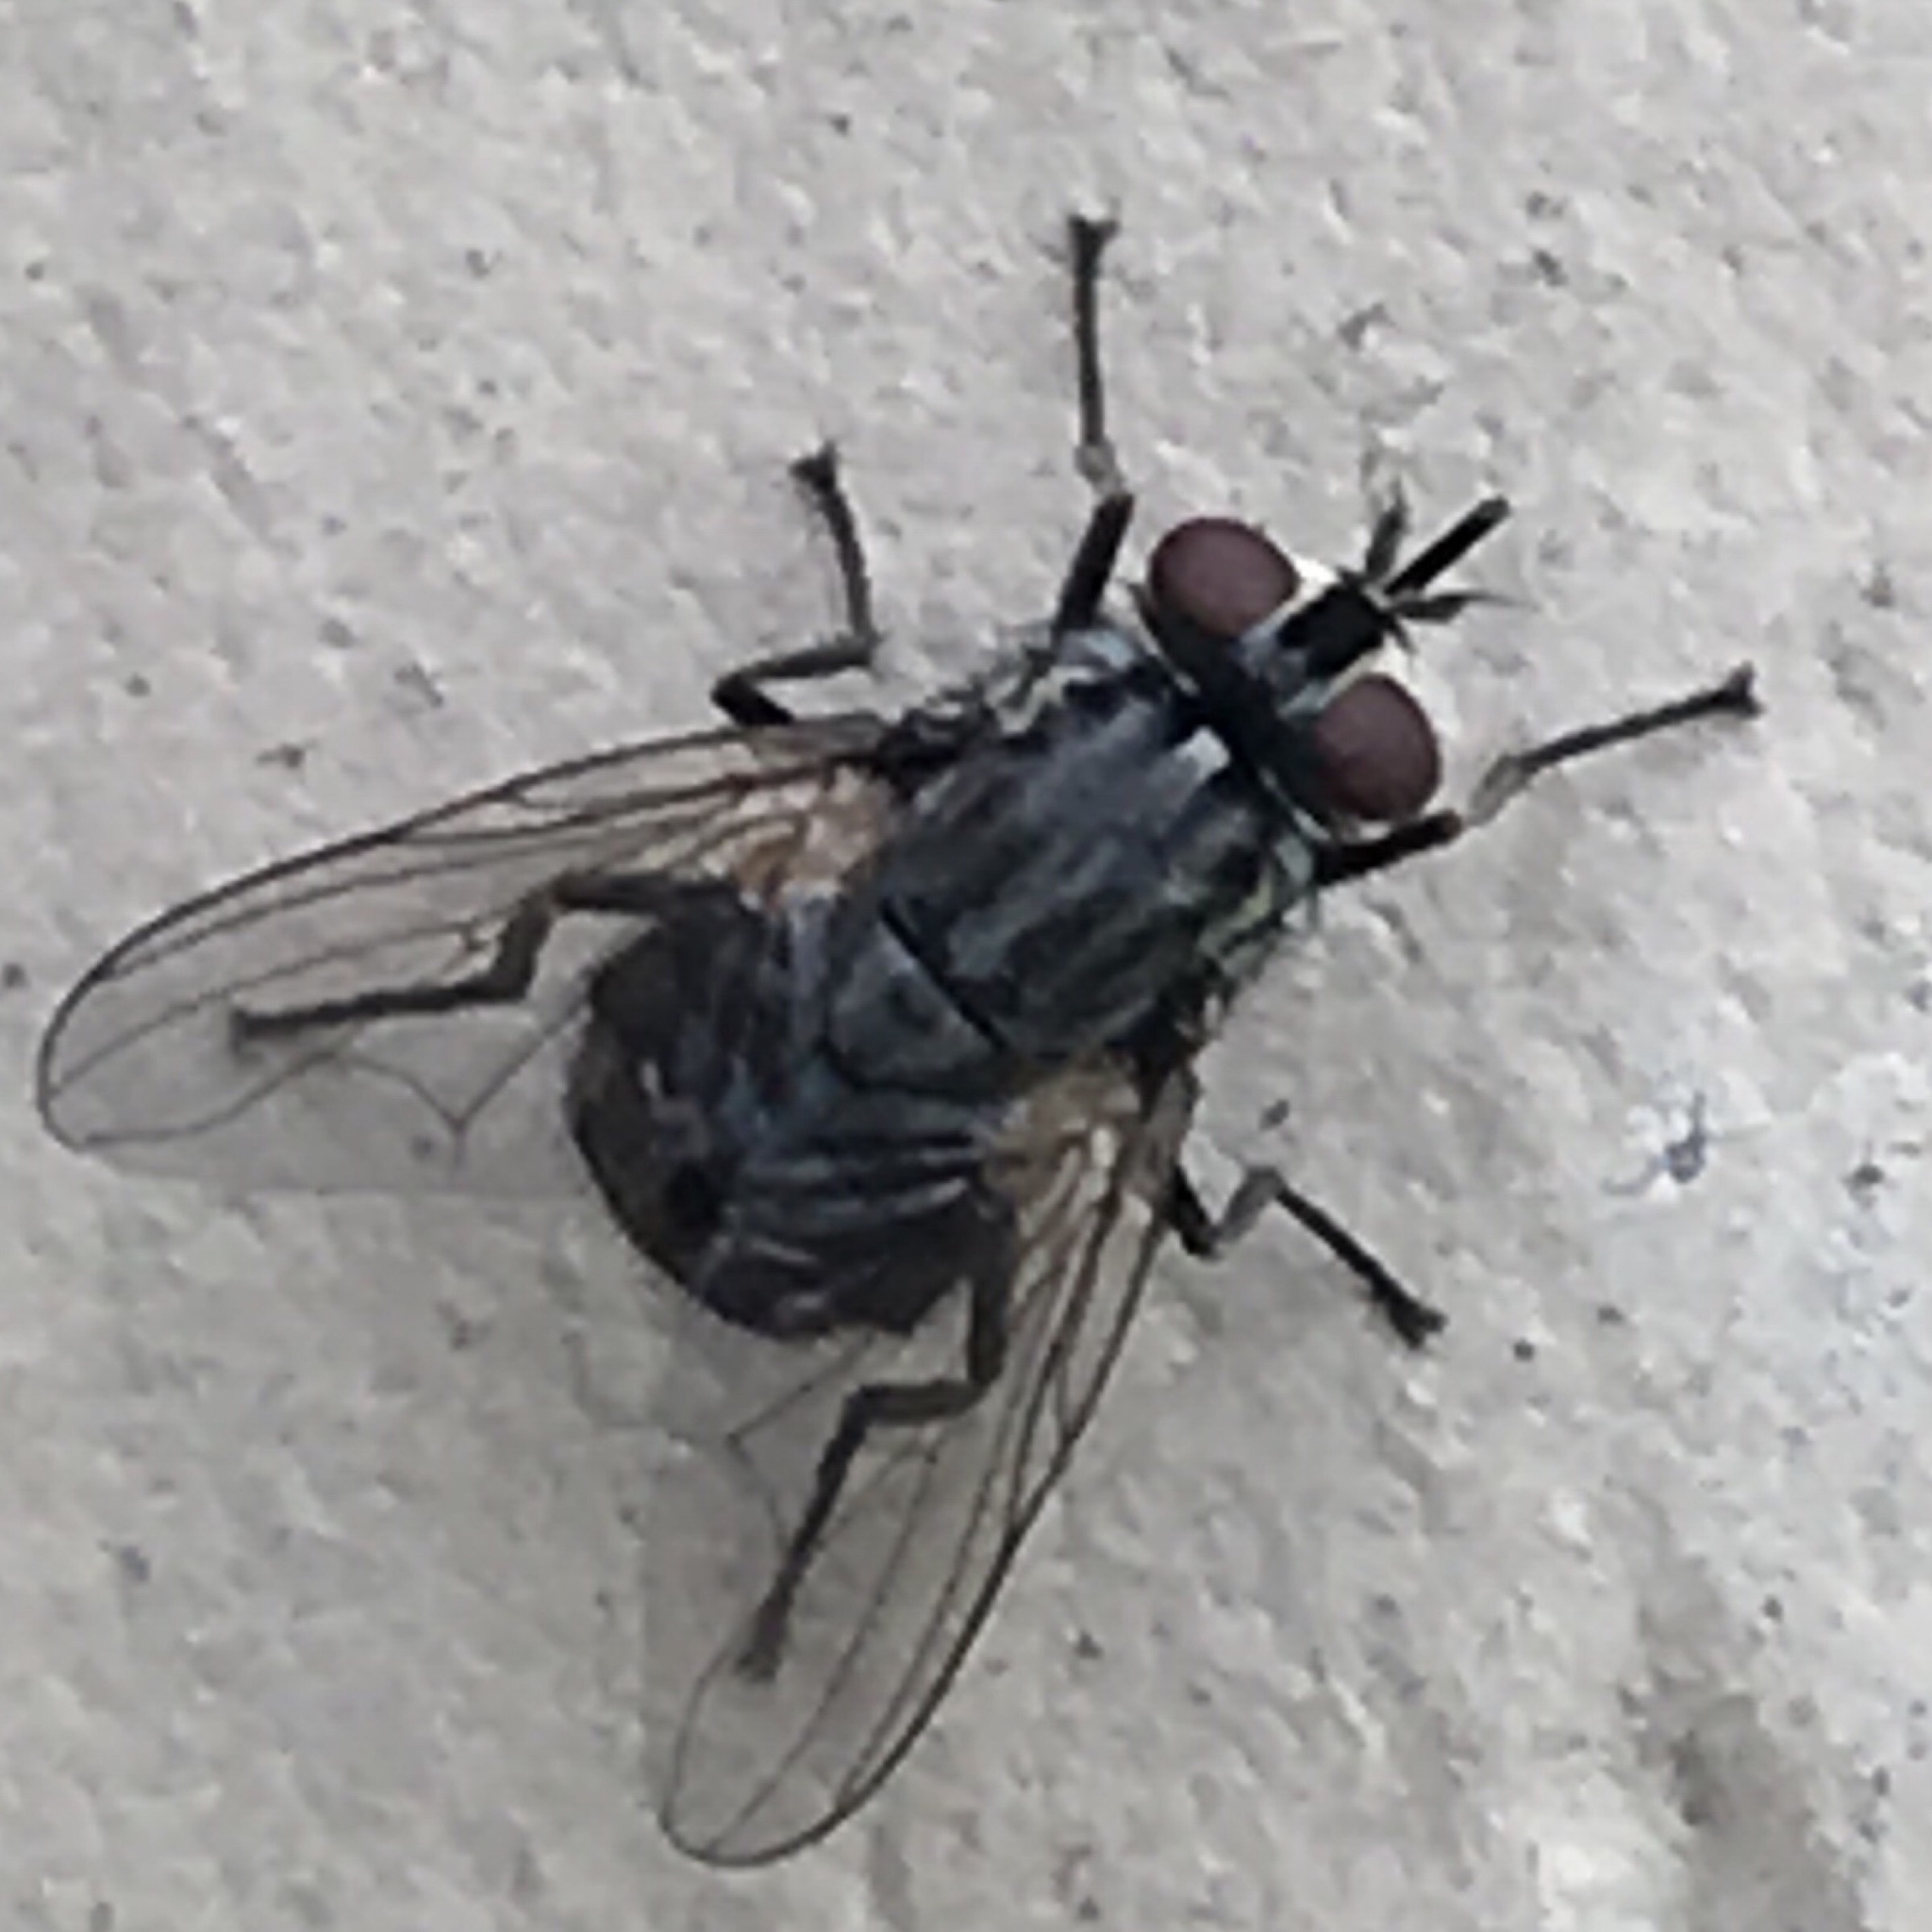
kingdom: Animalia
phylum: Arthropoda
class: Insecta
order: Diptera
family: Muscidae
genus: Stomoxys
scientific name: Stomoxys calcitrans
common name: Stable fly
